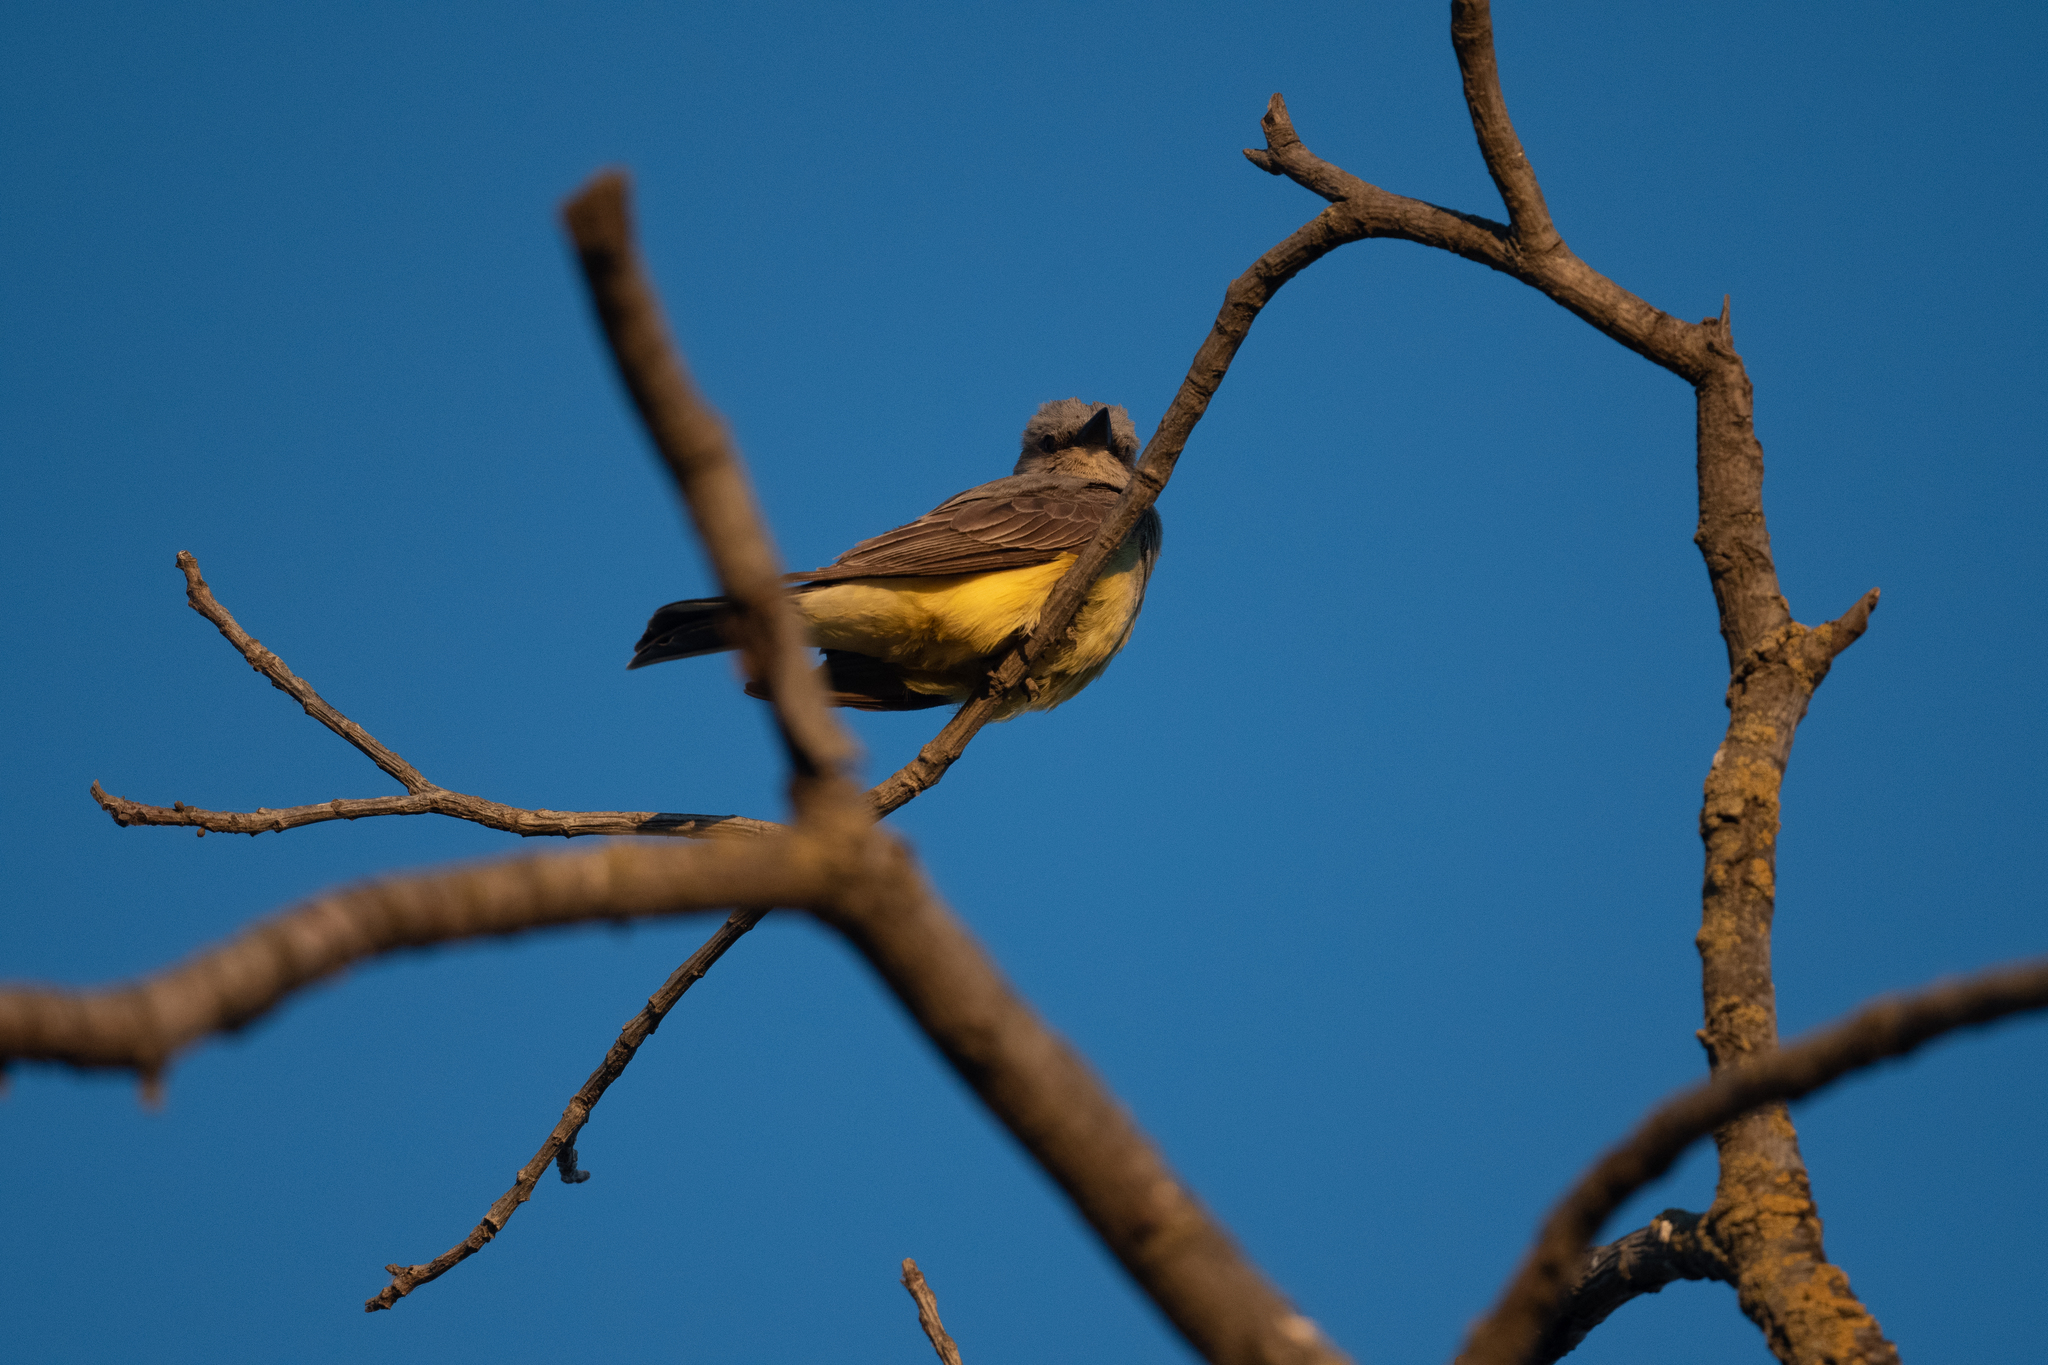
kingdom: Animalia
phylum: Chordata
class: Aves
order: Passeriformes
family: Tyrannidae
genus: Tyrannus
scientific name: Tyrannus verticalis
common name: Western kingbird
